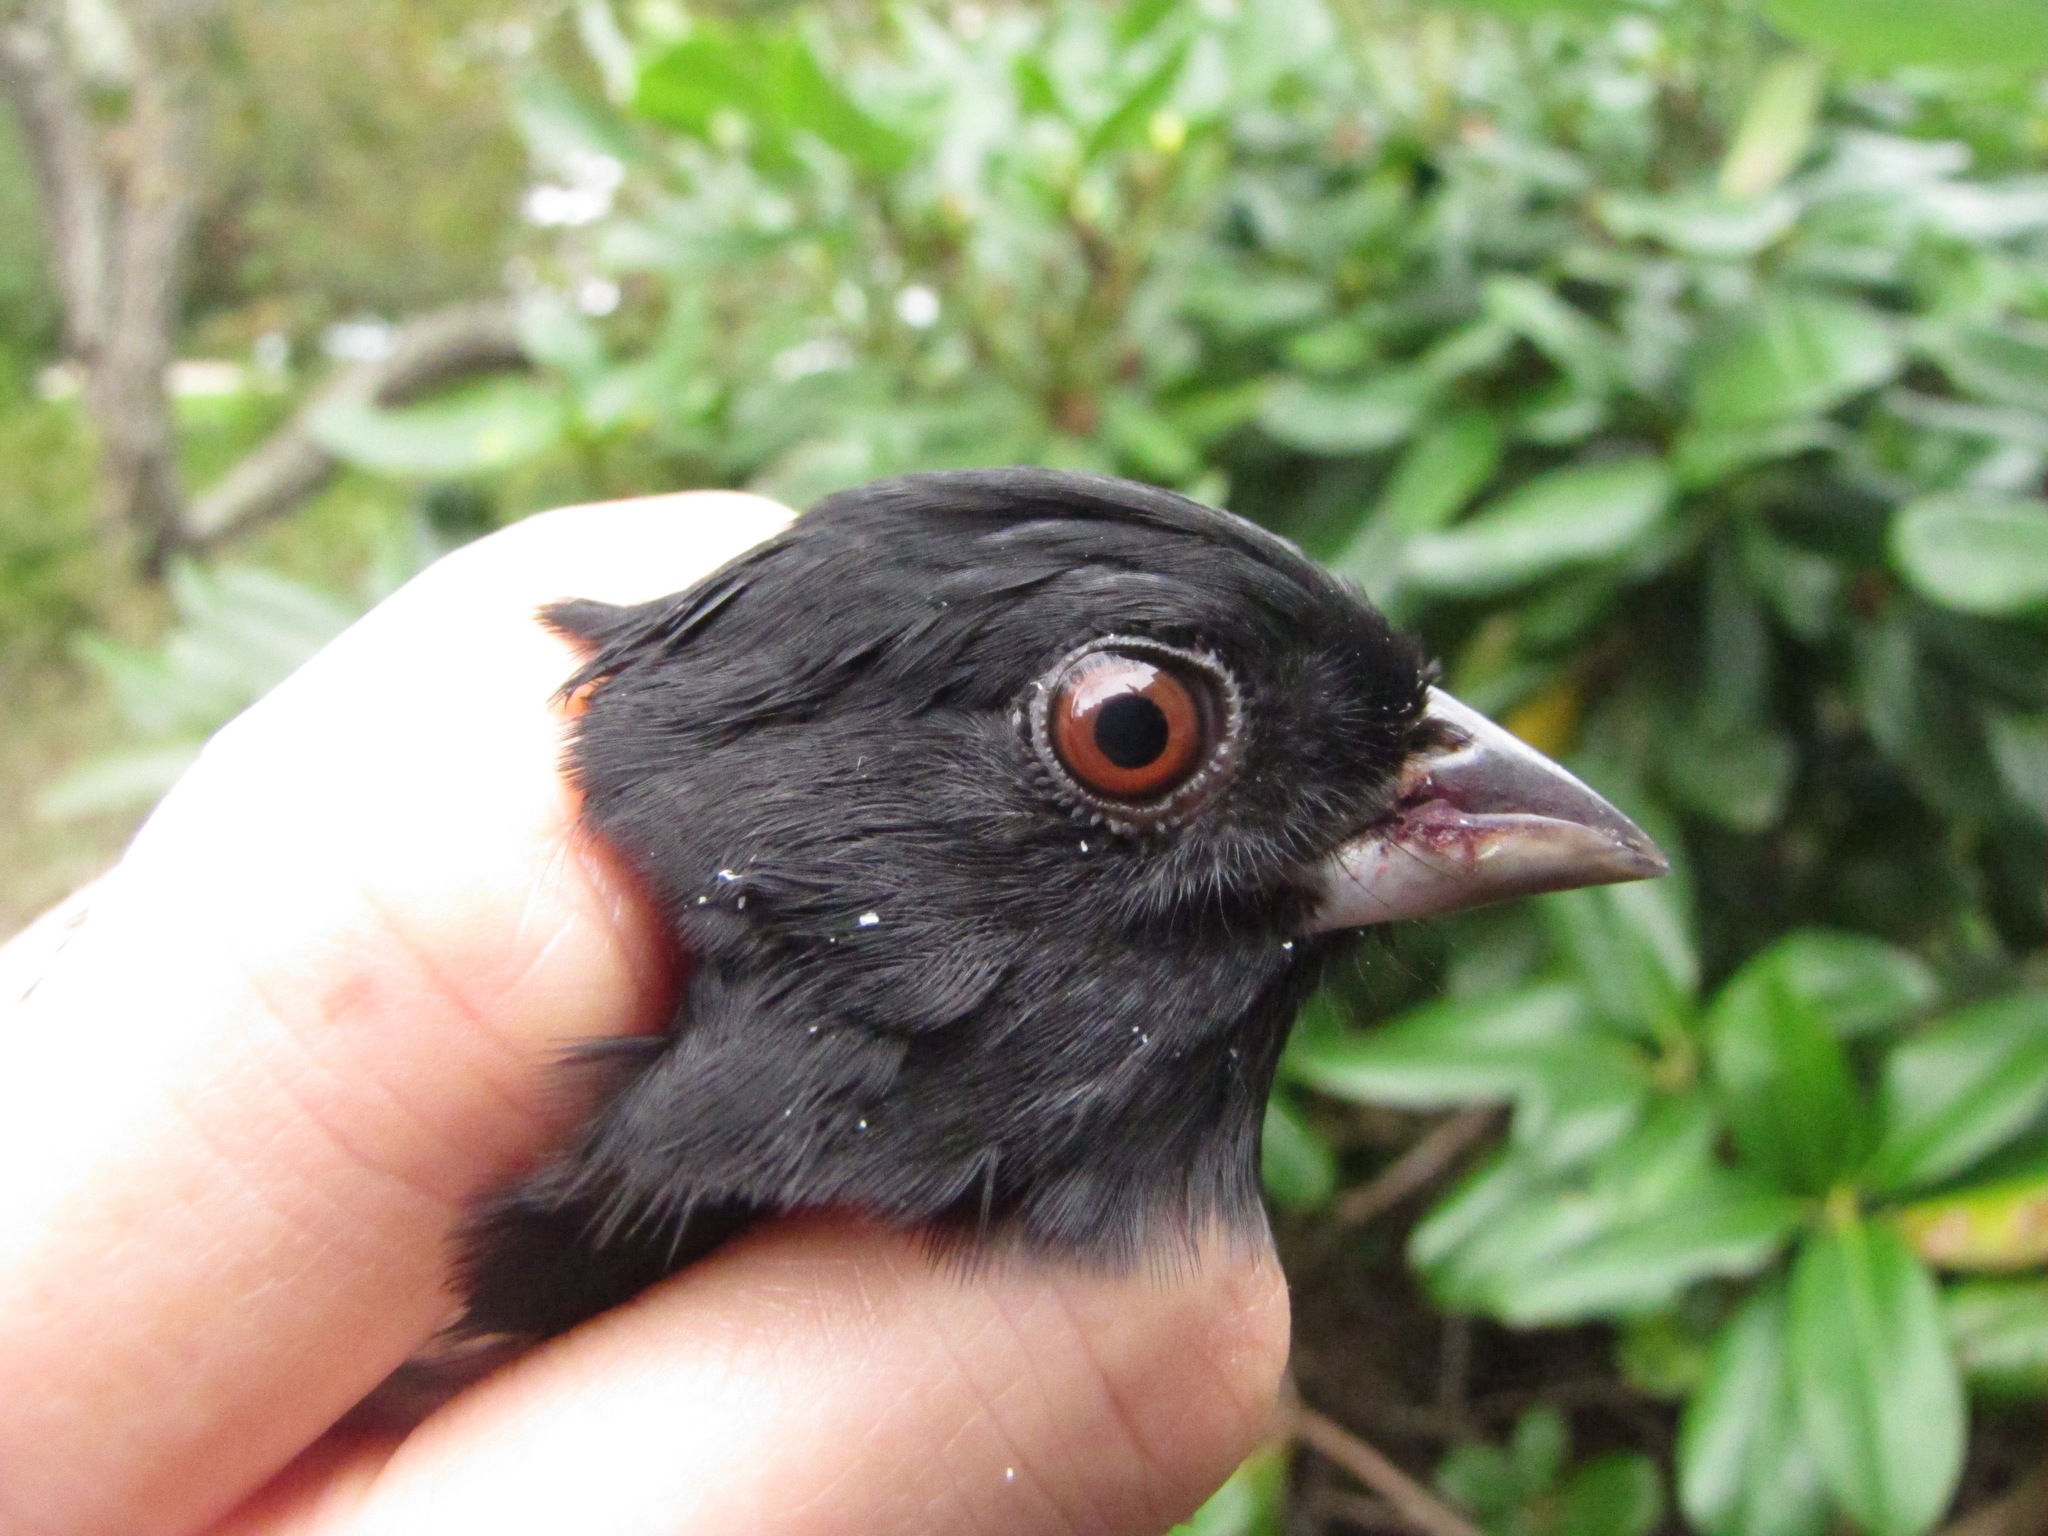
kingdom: Animalia
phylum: Chordata
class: Aves
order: Passeriformes
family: Passerellidae
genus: Pipilo
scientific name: Pipilo erythrophthalmus
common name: Eastern towhee
